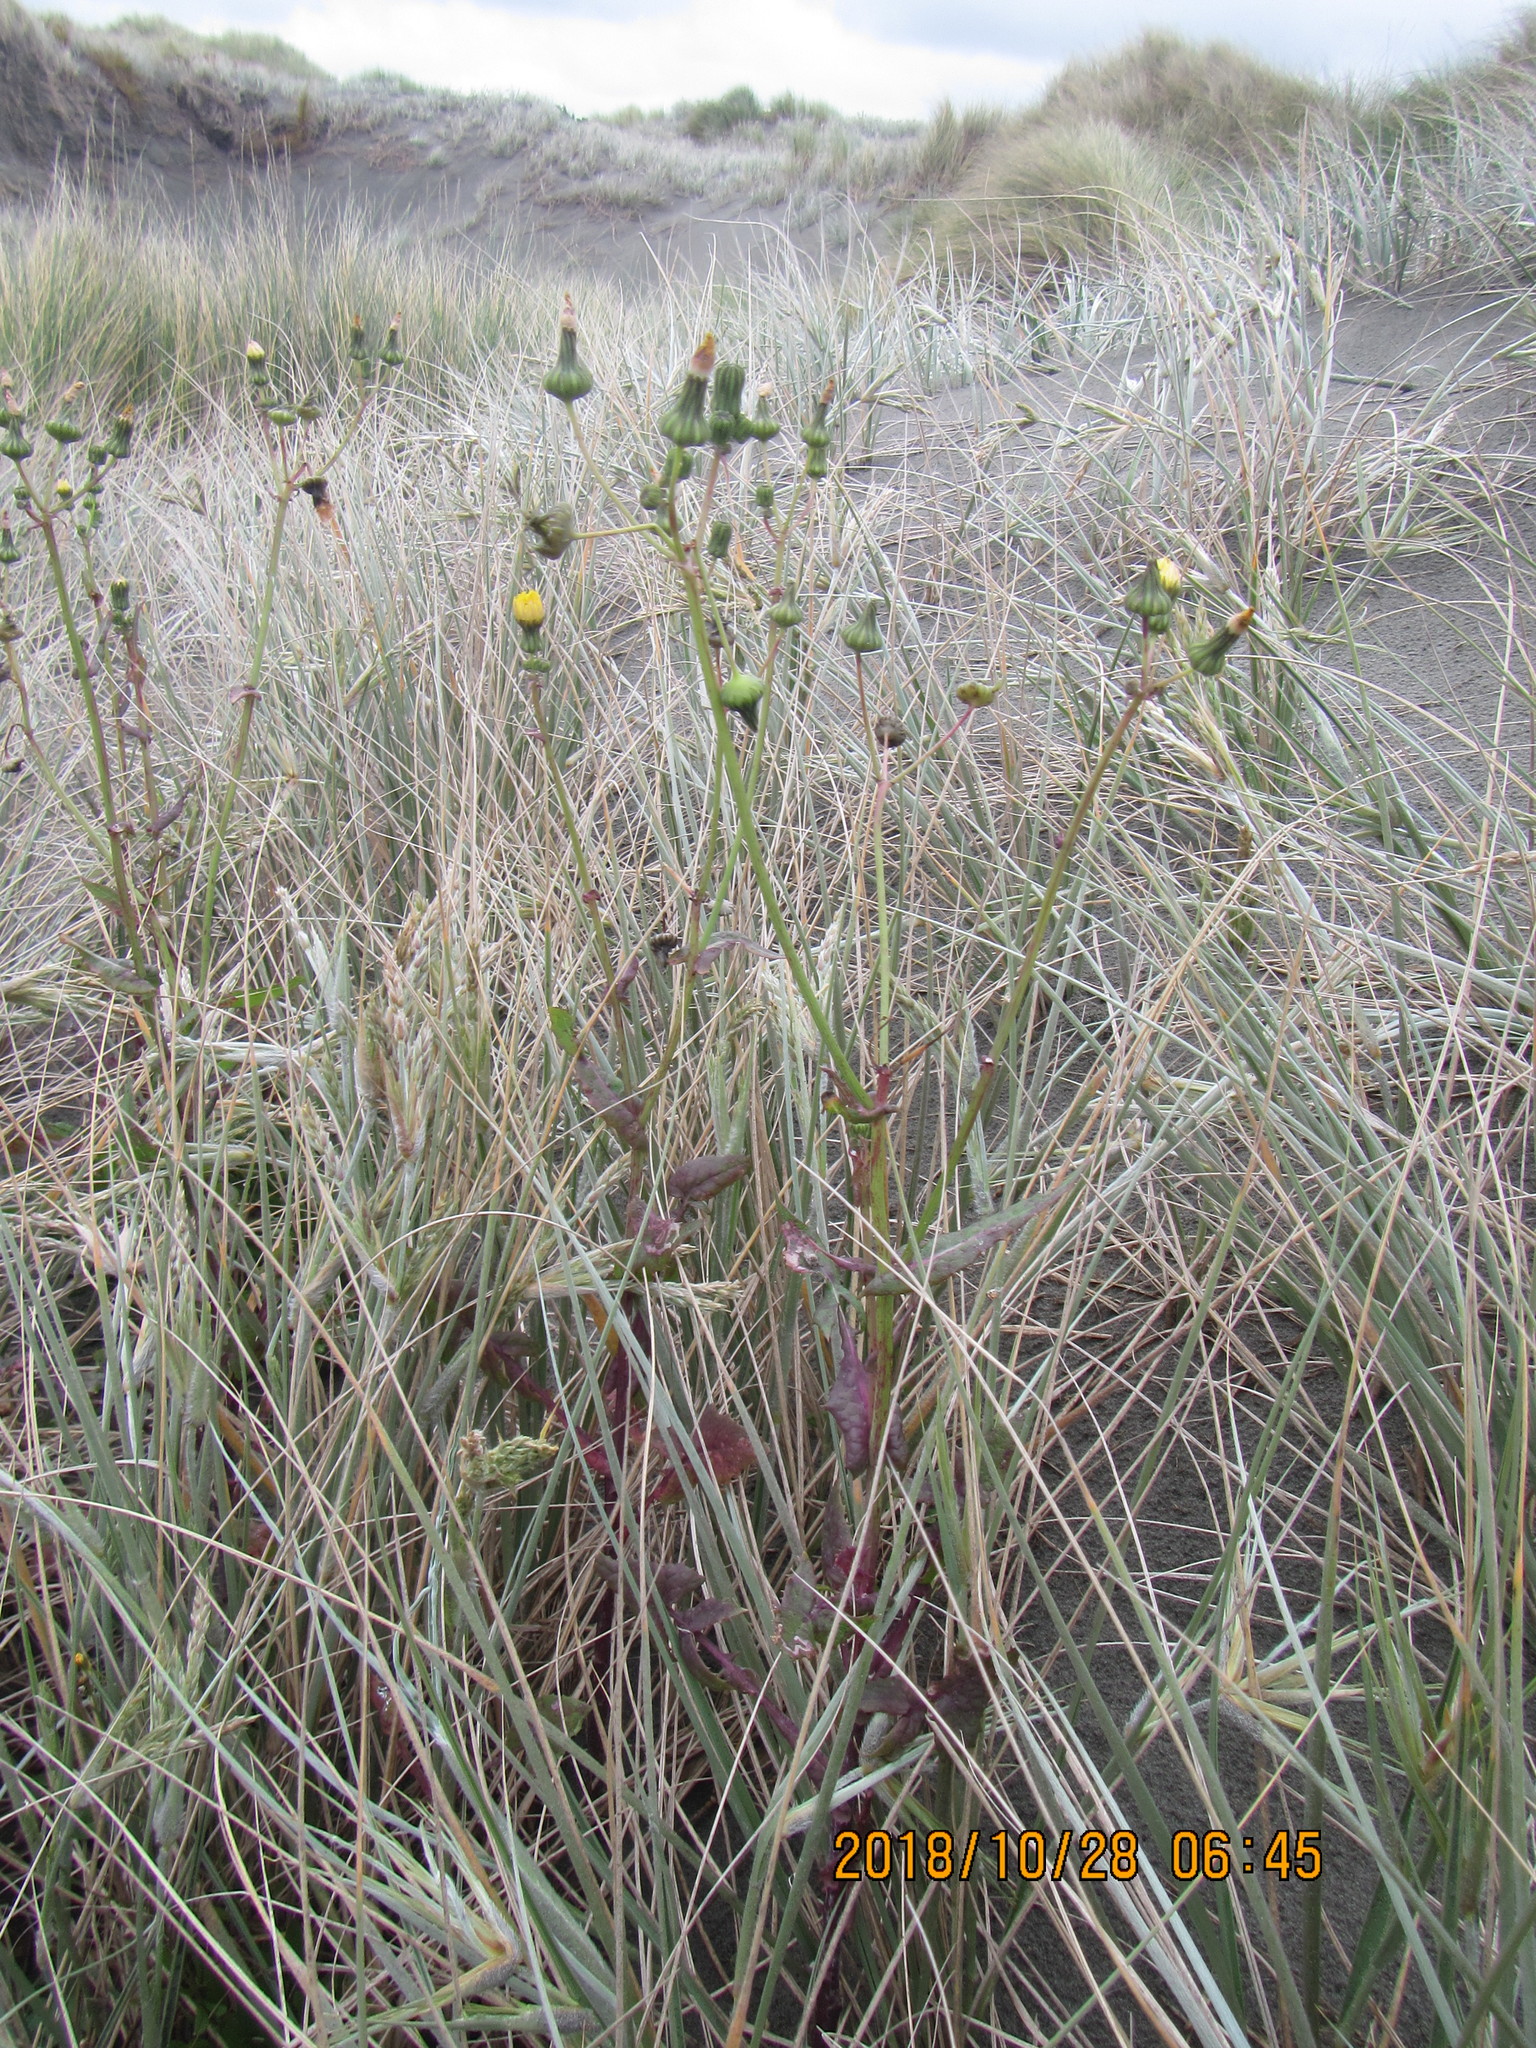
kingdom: Plantae
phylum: Tracheophyta
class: Magnoliopsida
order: Asterales
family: Asteraceae
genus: Sonchus
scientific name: Sonchus oleraceus
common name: Common sowthistle
